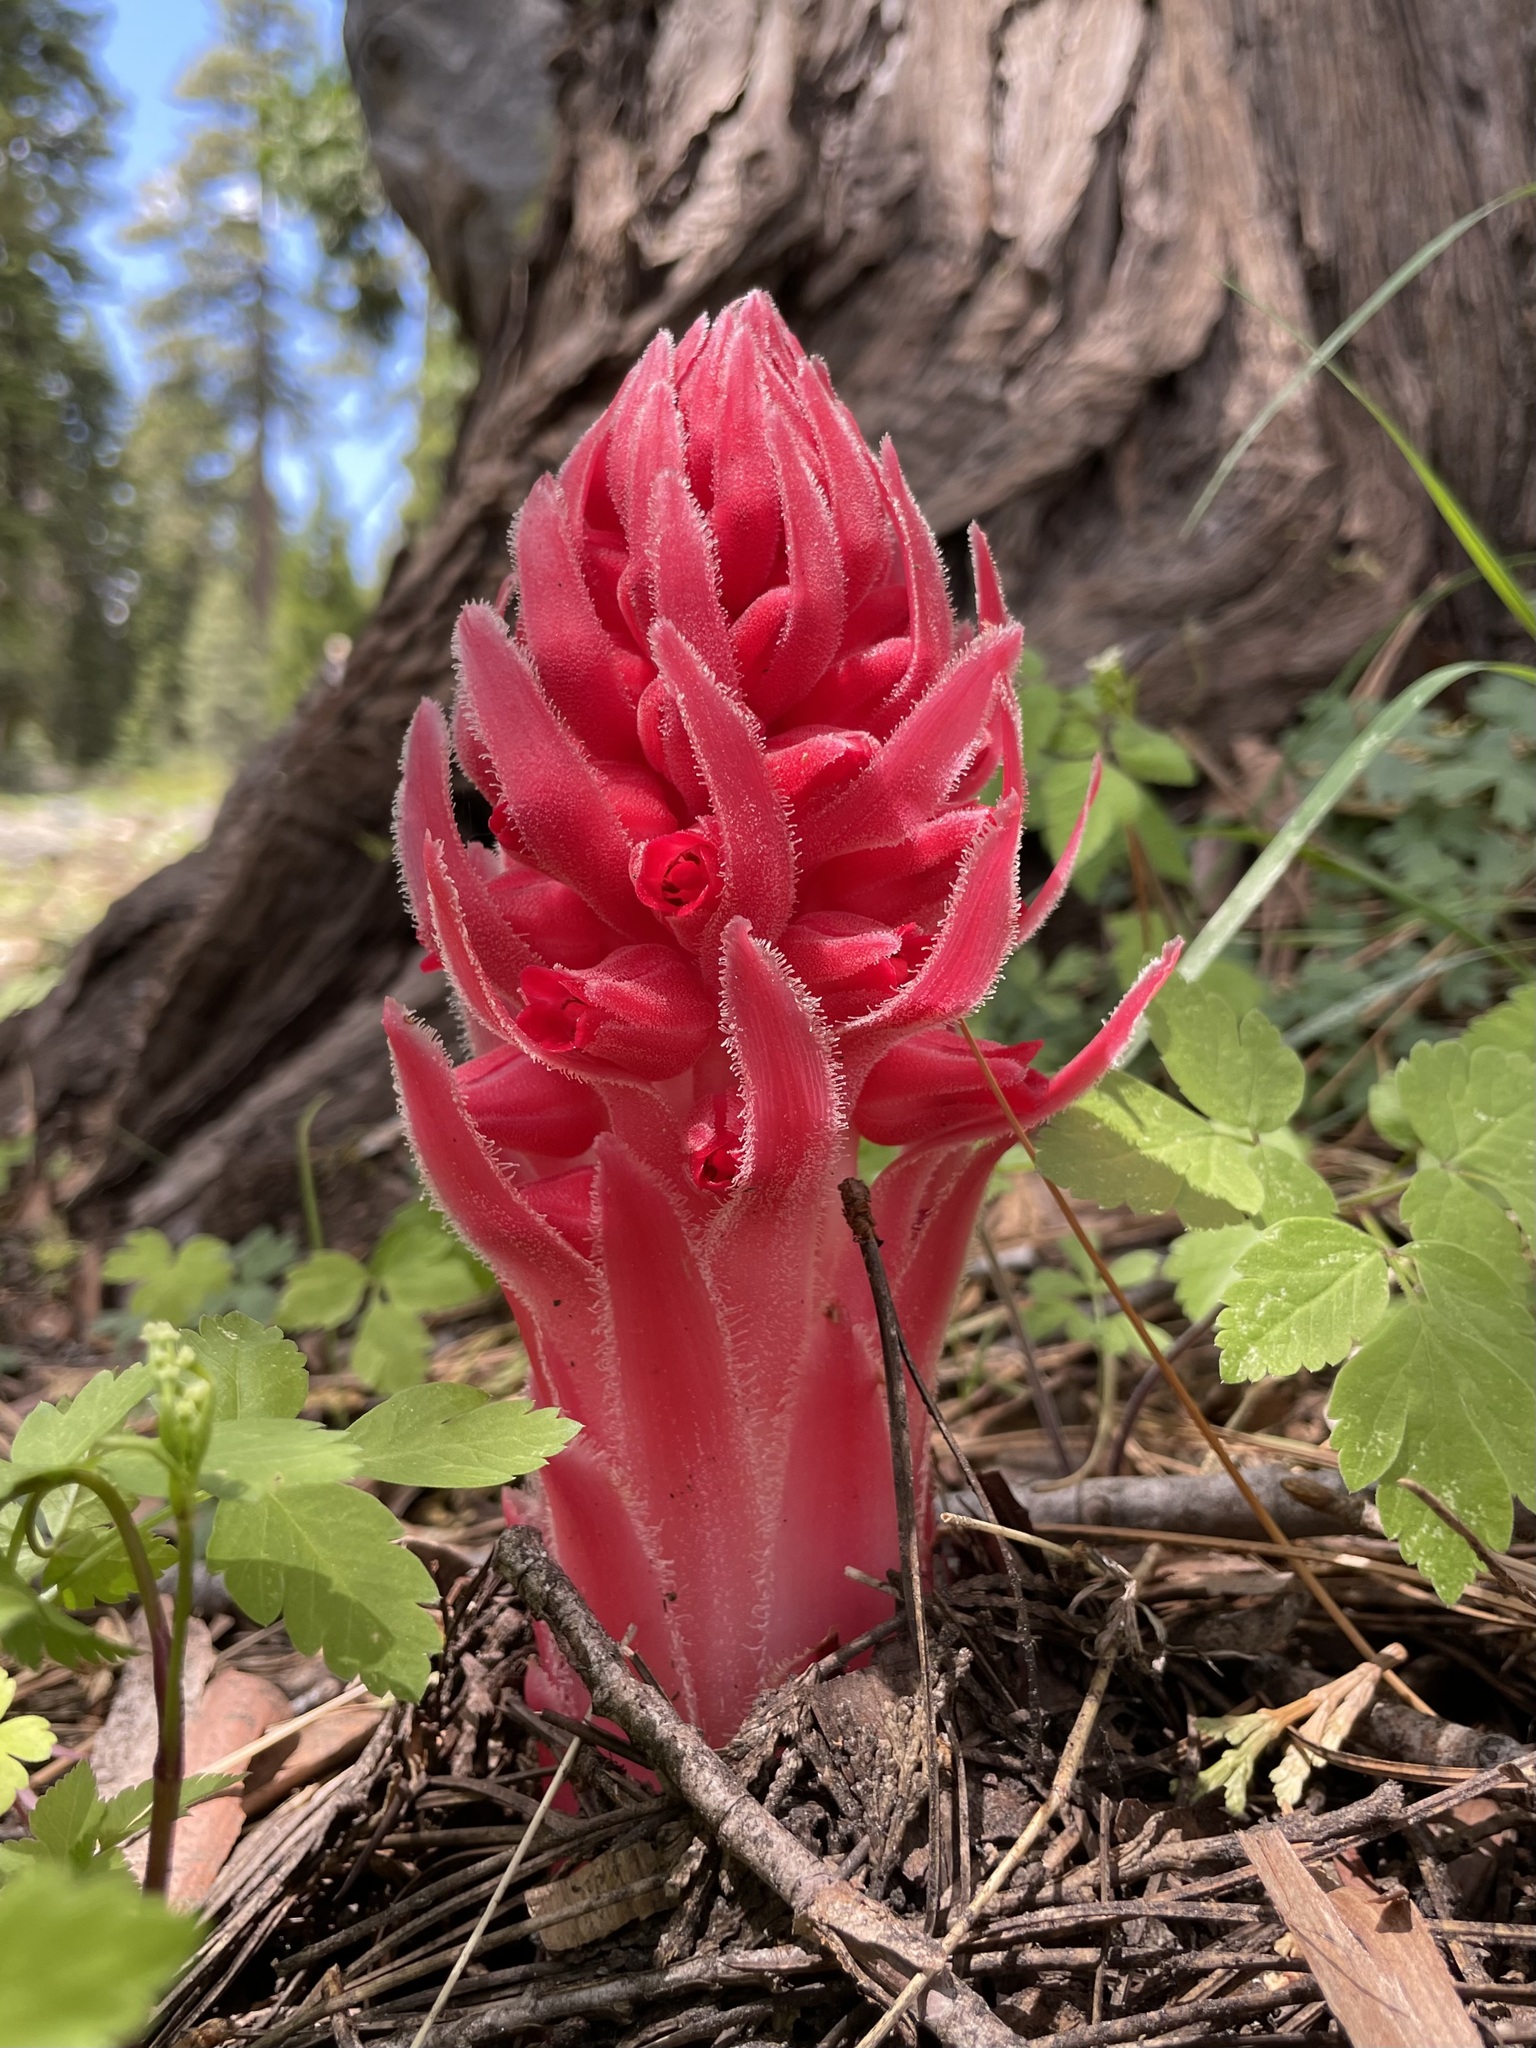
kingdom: Plantae
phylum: Tracheophyta
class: Magnoliopsida
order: Ericales
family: Ericaceae
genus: Sarcodes
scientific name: Sarcodes sanguinea
